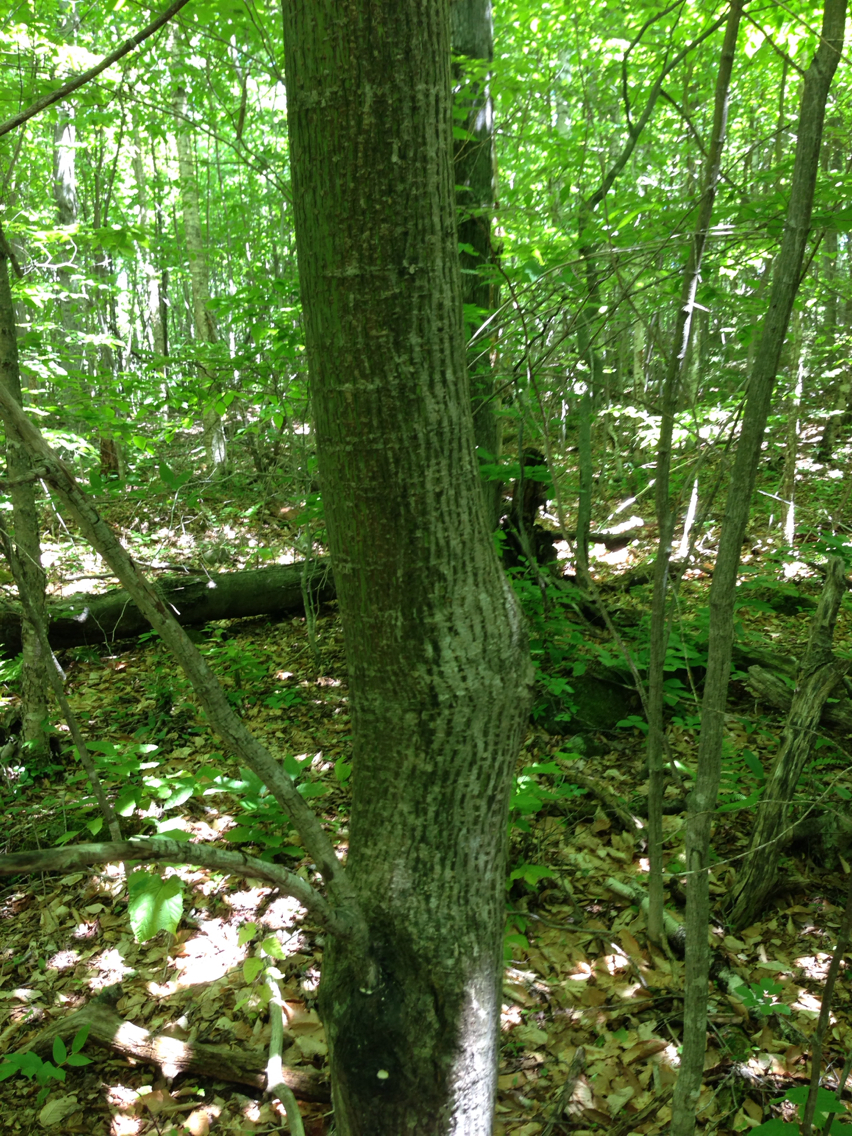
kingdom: Plantae
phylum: Tracheophyta
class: Magnoliopsida
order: Sapindales
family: Sapindaceae
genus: Acer
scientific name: Acer pensylvanicum
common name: Moosewood
